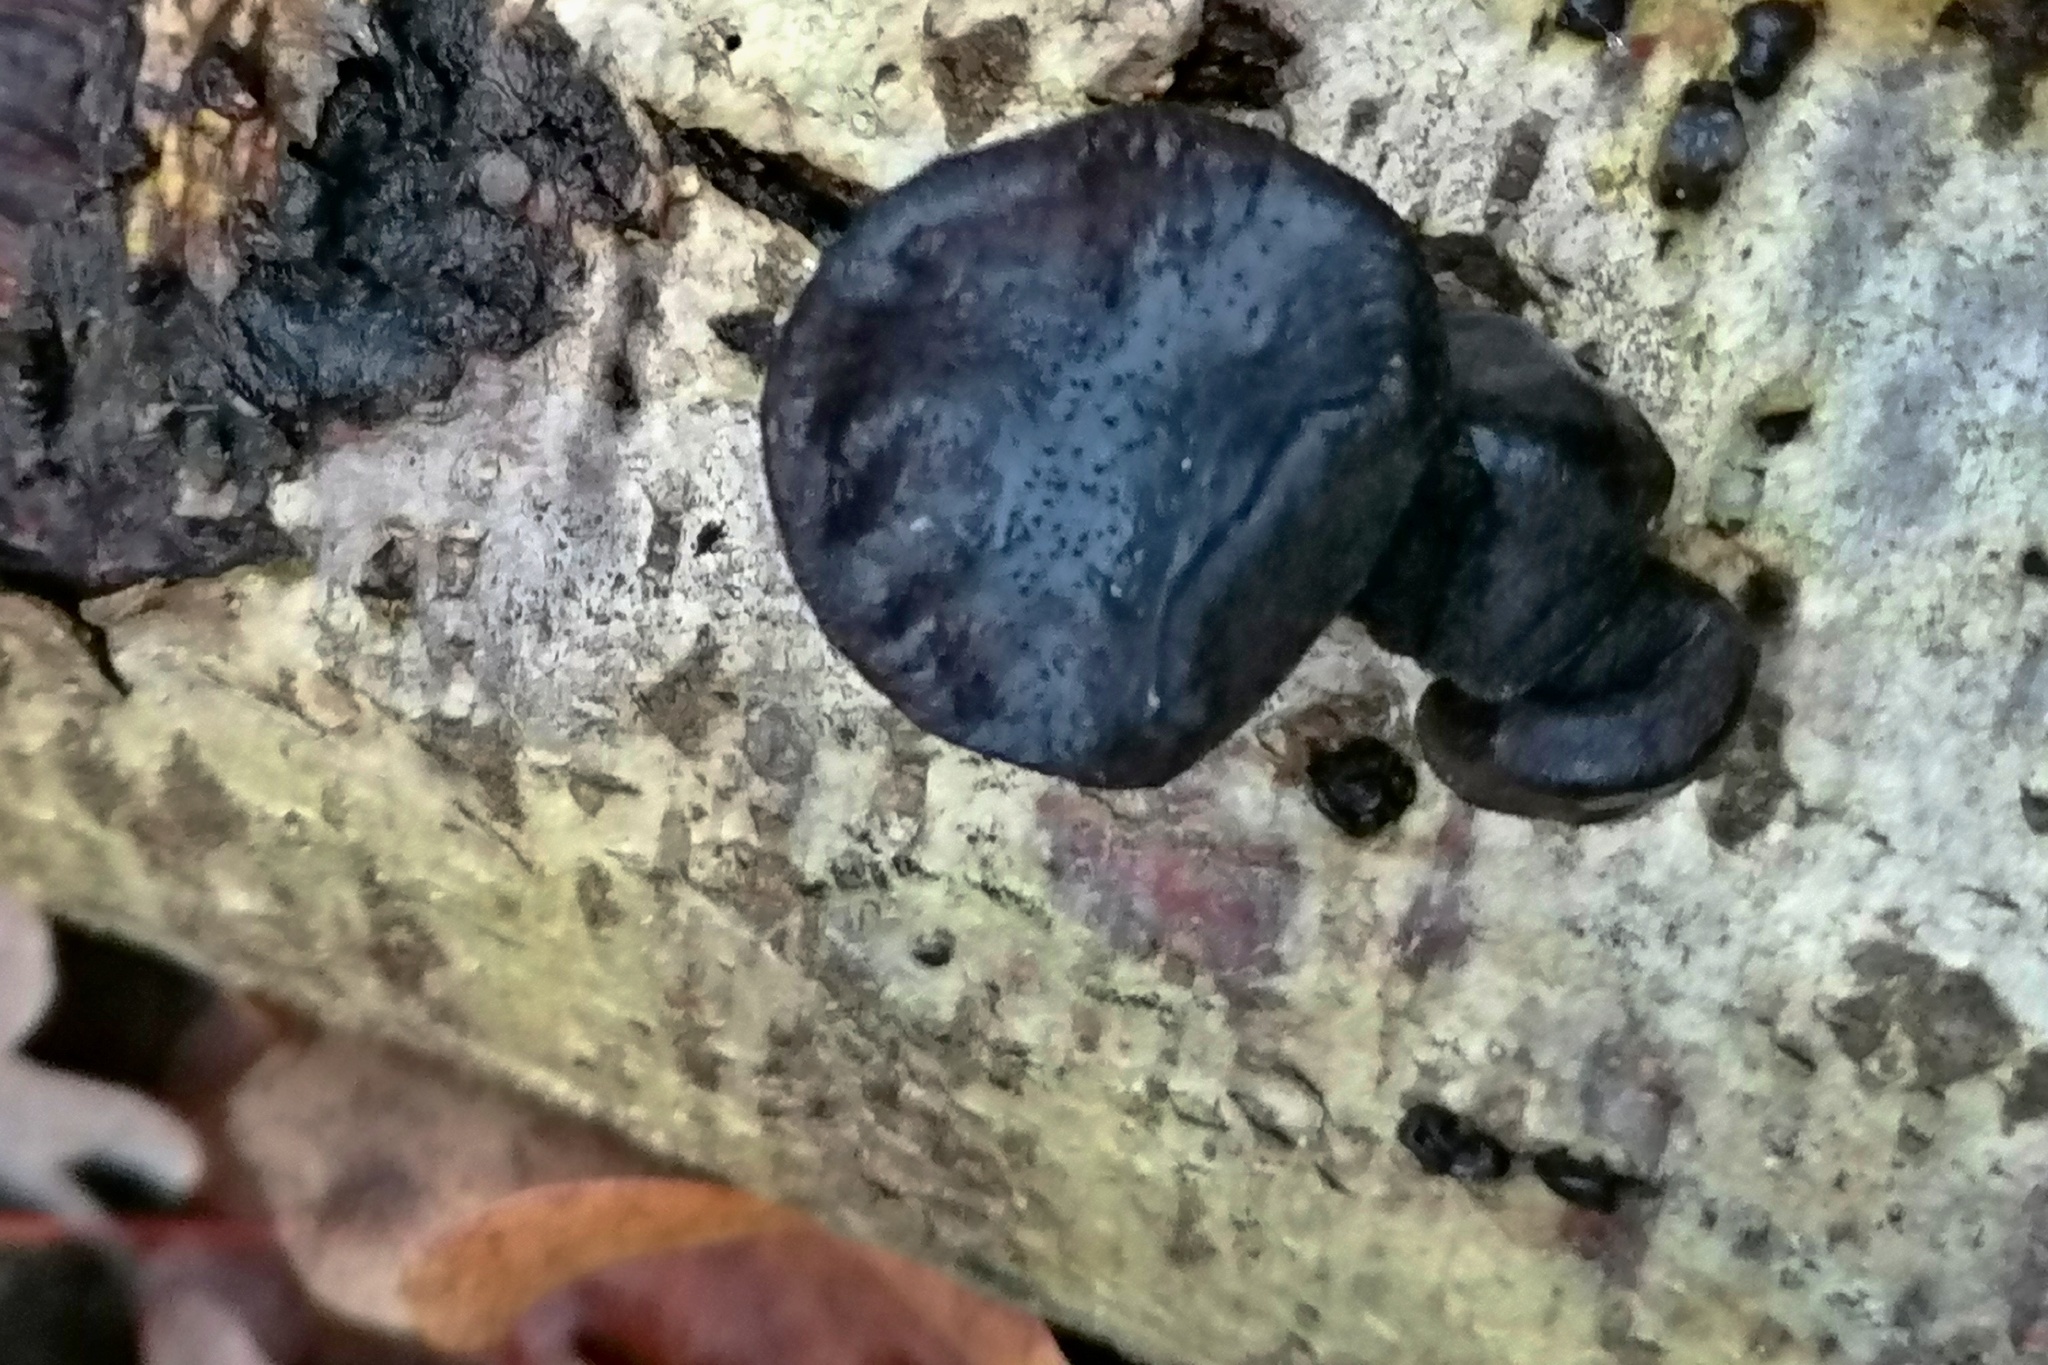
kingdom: Fungi
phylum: Basidiomycota
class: Agaricomycetes
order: Auriculariales
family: Auriculariaceae
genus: Exidia
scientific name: Exidia nigricans
